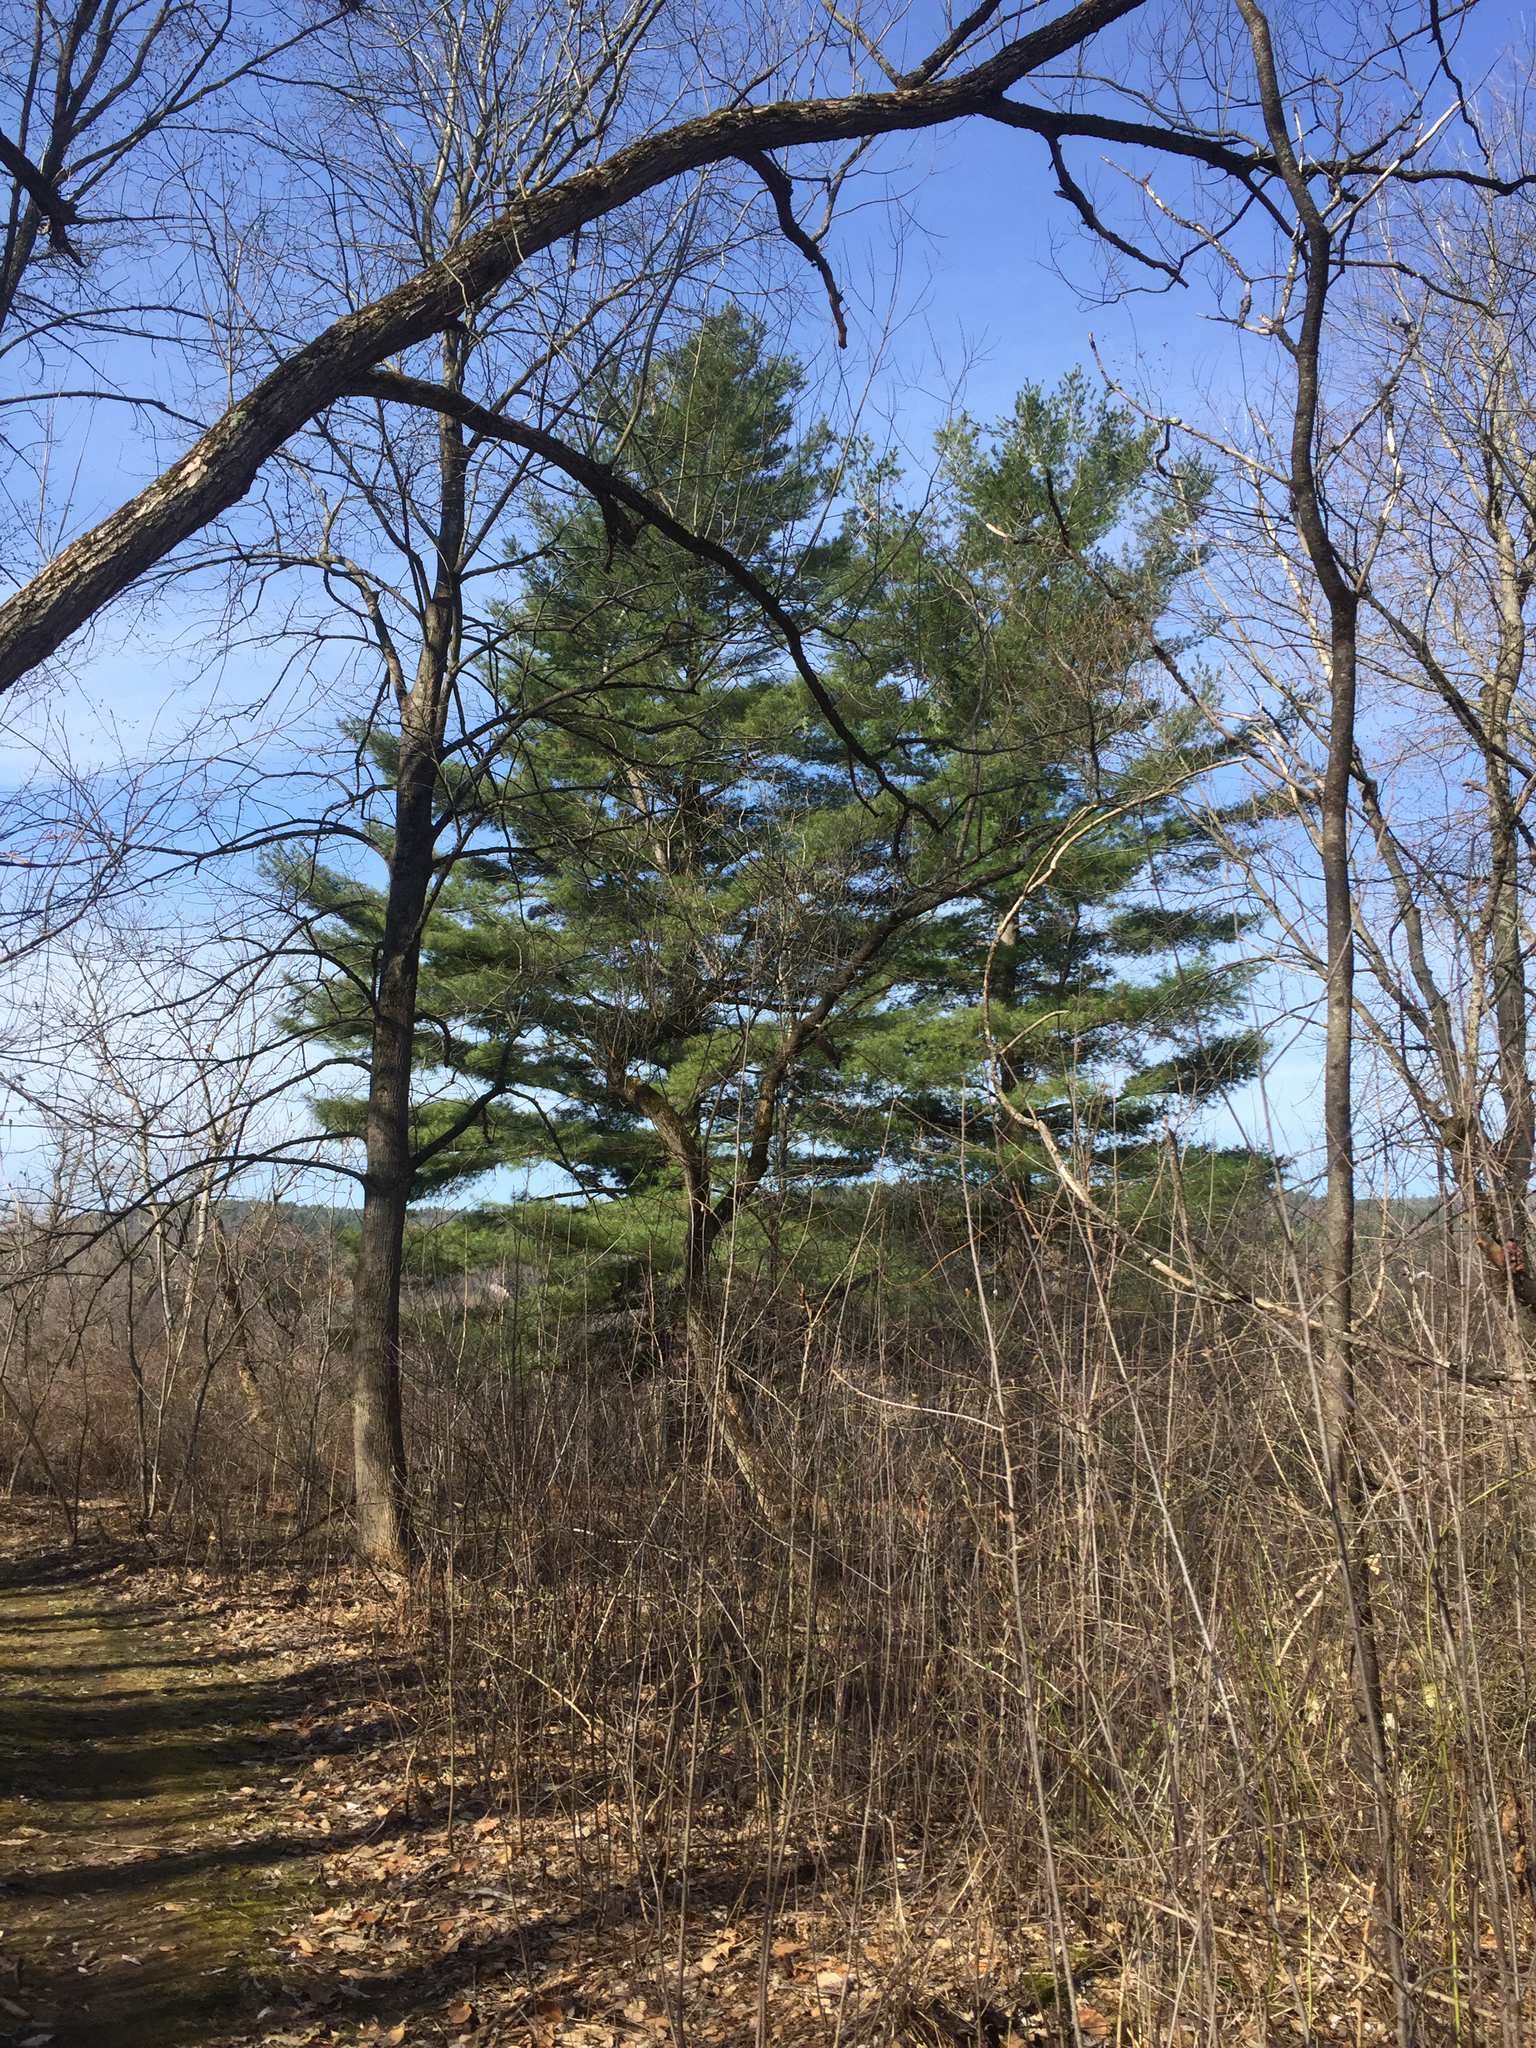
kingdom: Plantae
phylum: Tracheophyta
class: Pinopsida
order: Pinales
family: Pinaceae
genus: Pinus
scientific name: Pinus strobus
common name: Weymouth pine
